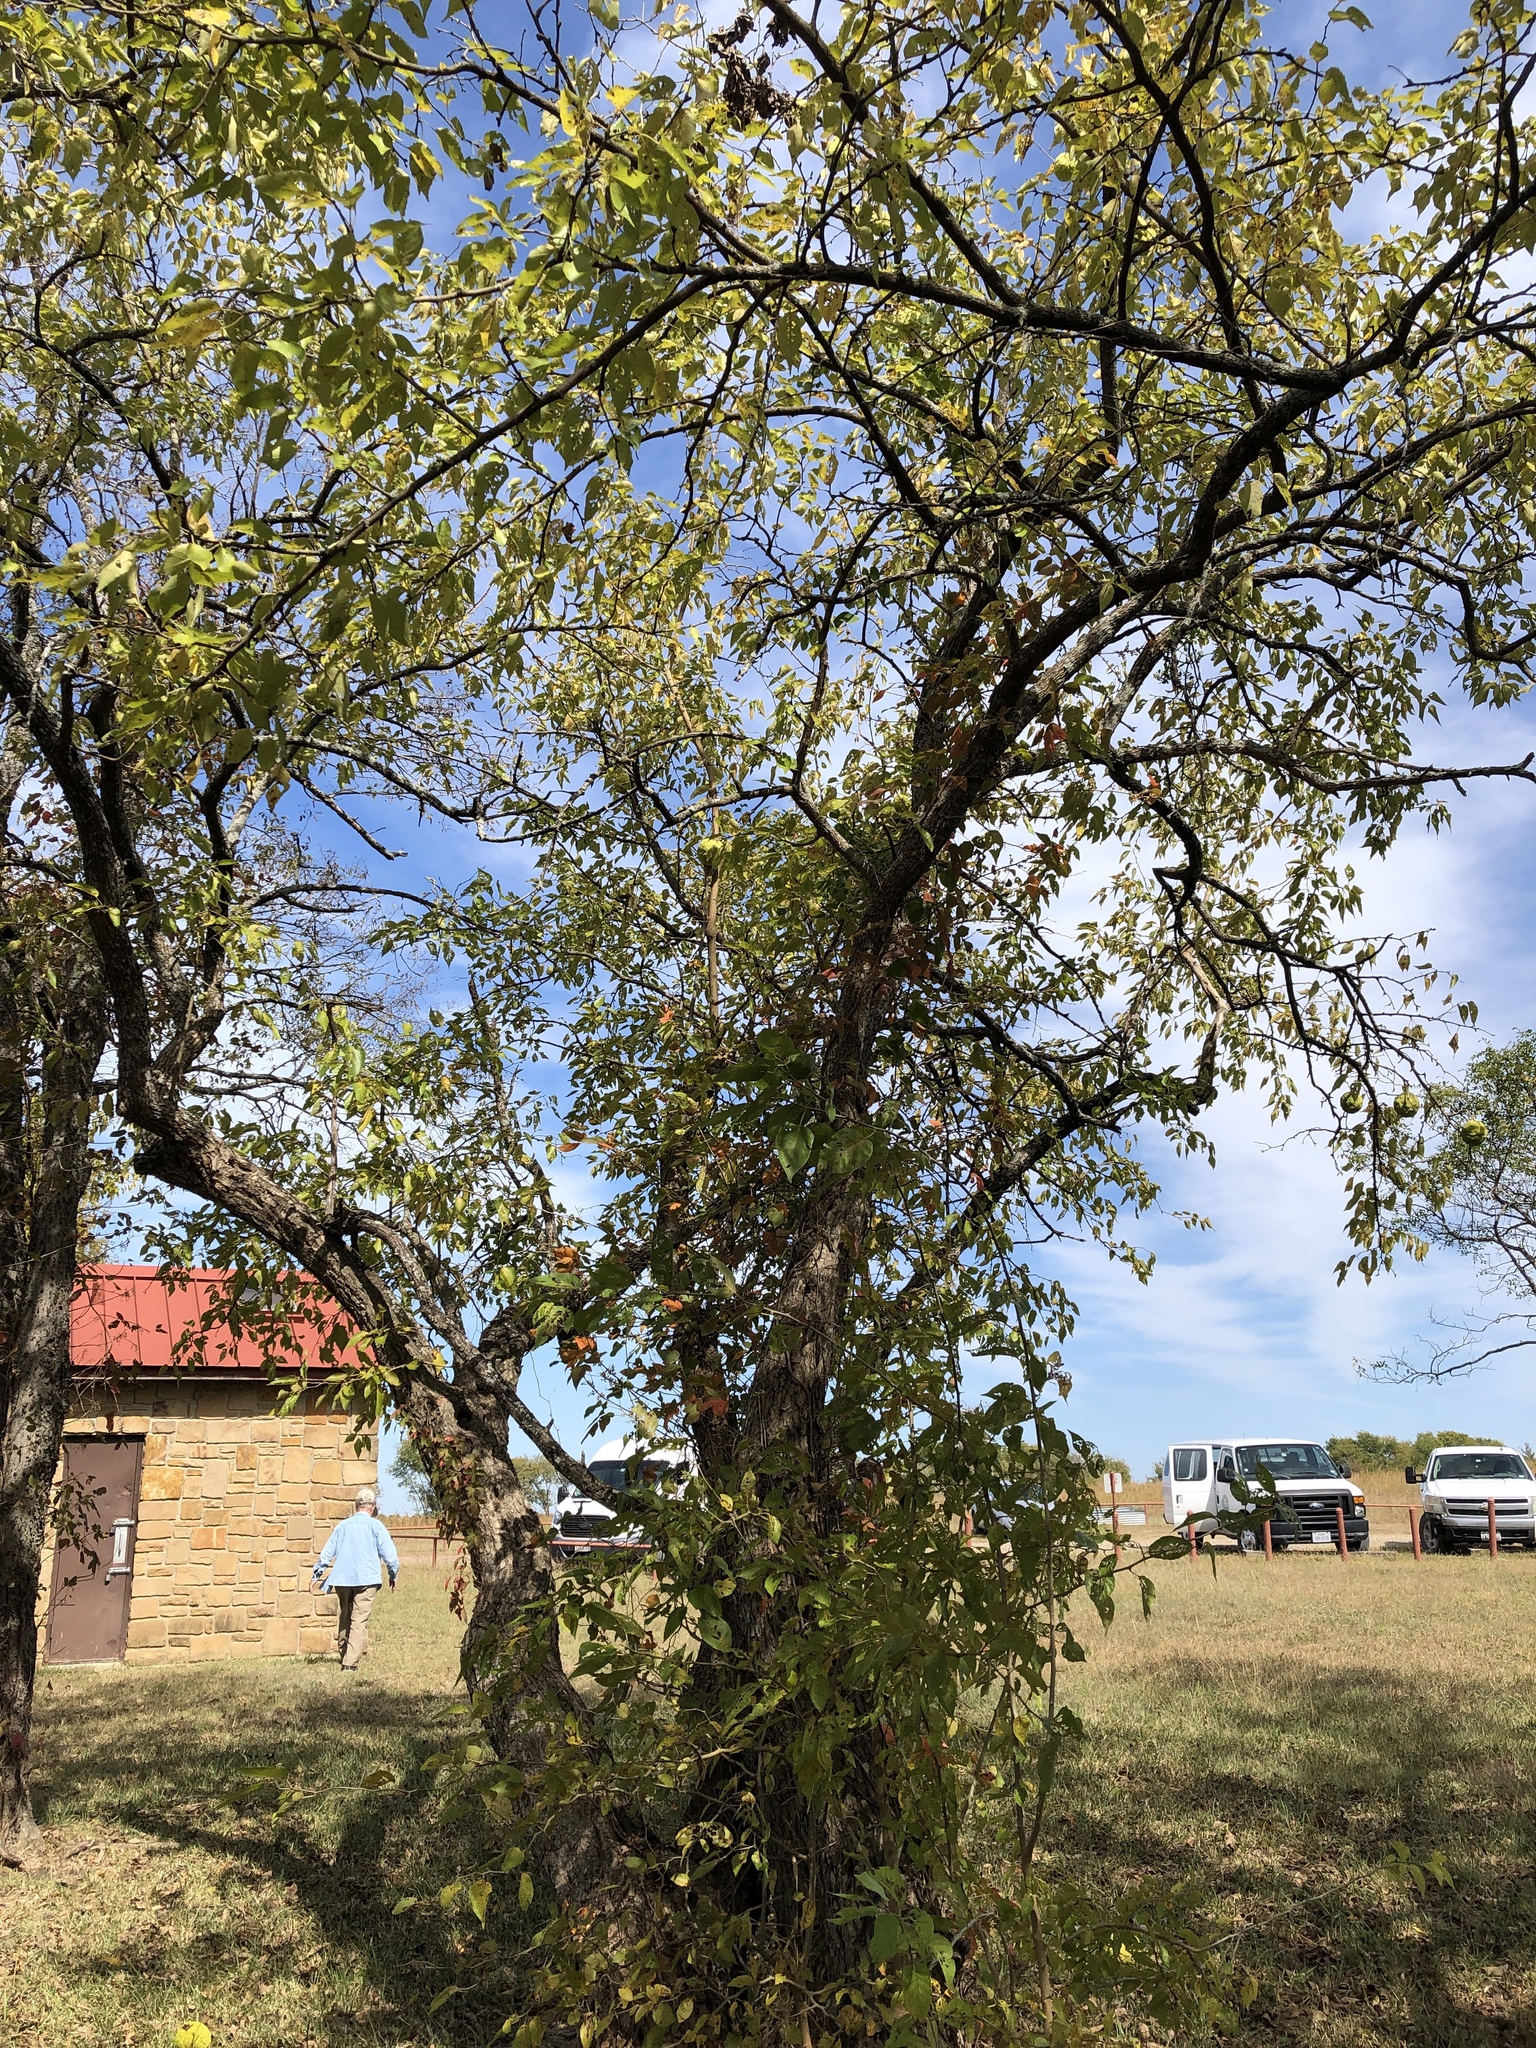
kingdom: Plantae
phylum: Tracheophyta
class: Magnoliopsida
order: Rosales
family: Moraceae
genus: Maclura
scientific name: Maclura pomifera
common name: Osage-orange
